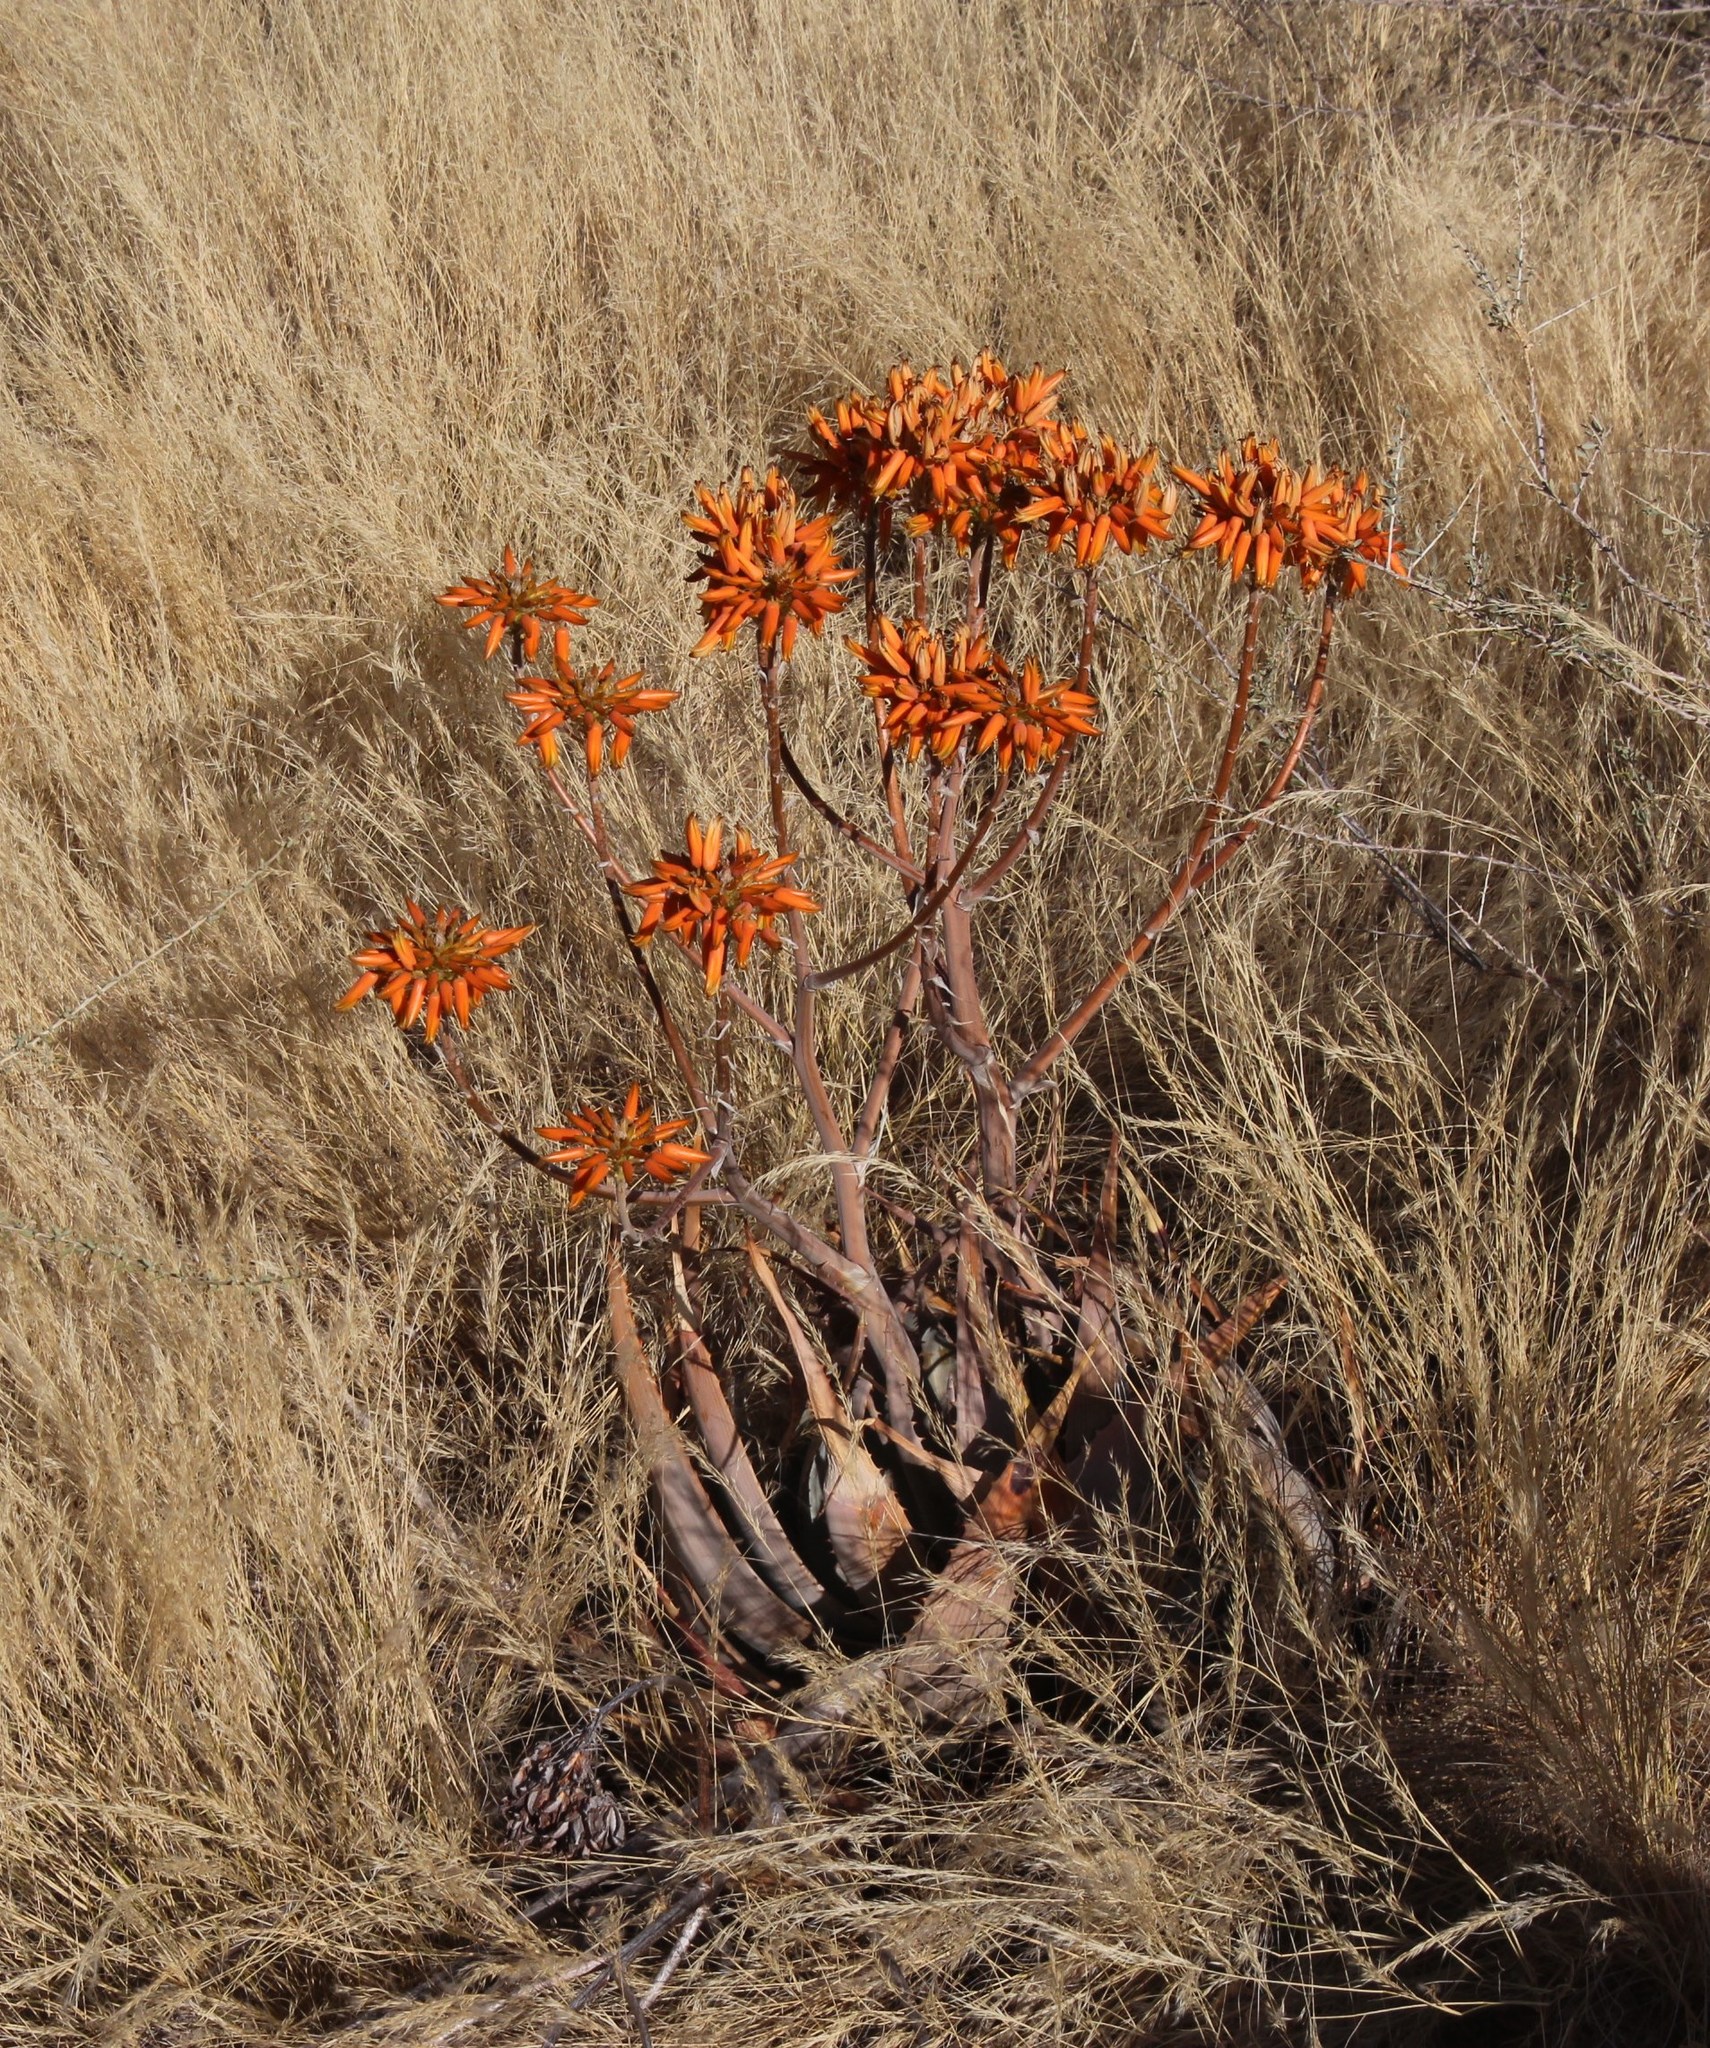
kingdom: Plantae
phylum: Tracheophyta
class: Liliopsida
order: Asparagales
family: Asphodelaceae
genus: Aloe
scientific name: Aloe hereroensis
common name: Herero aloe
